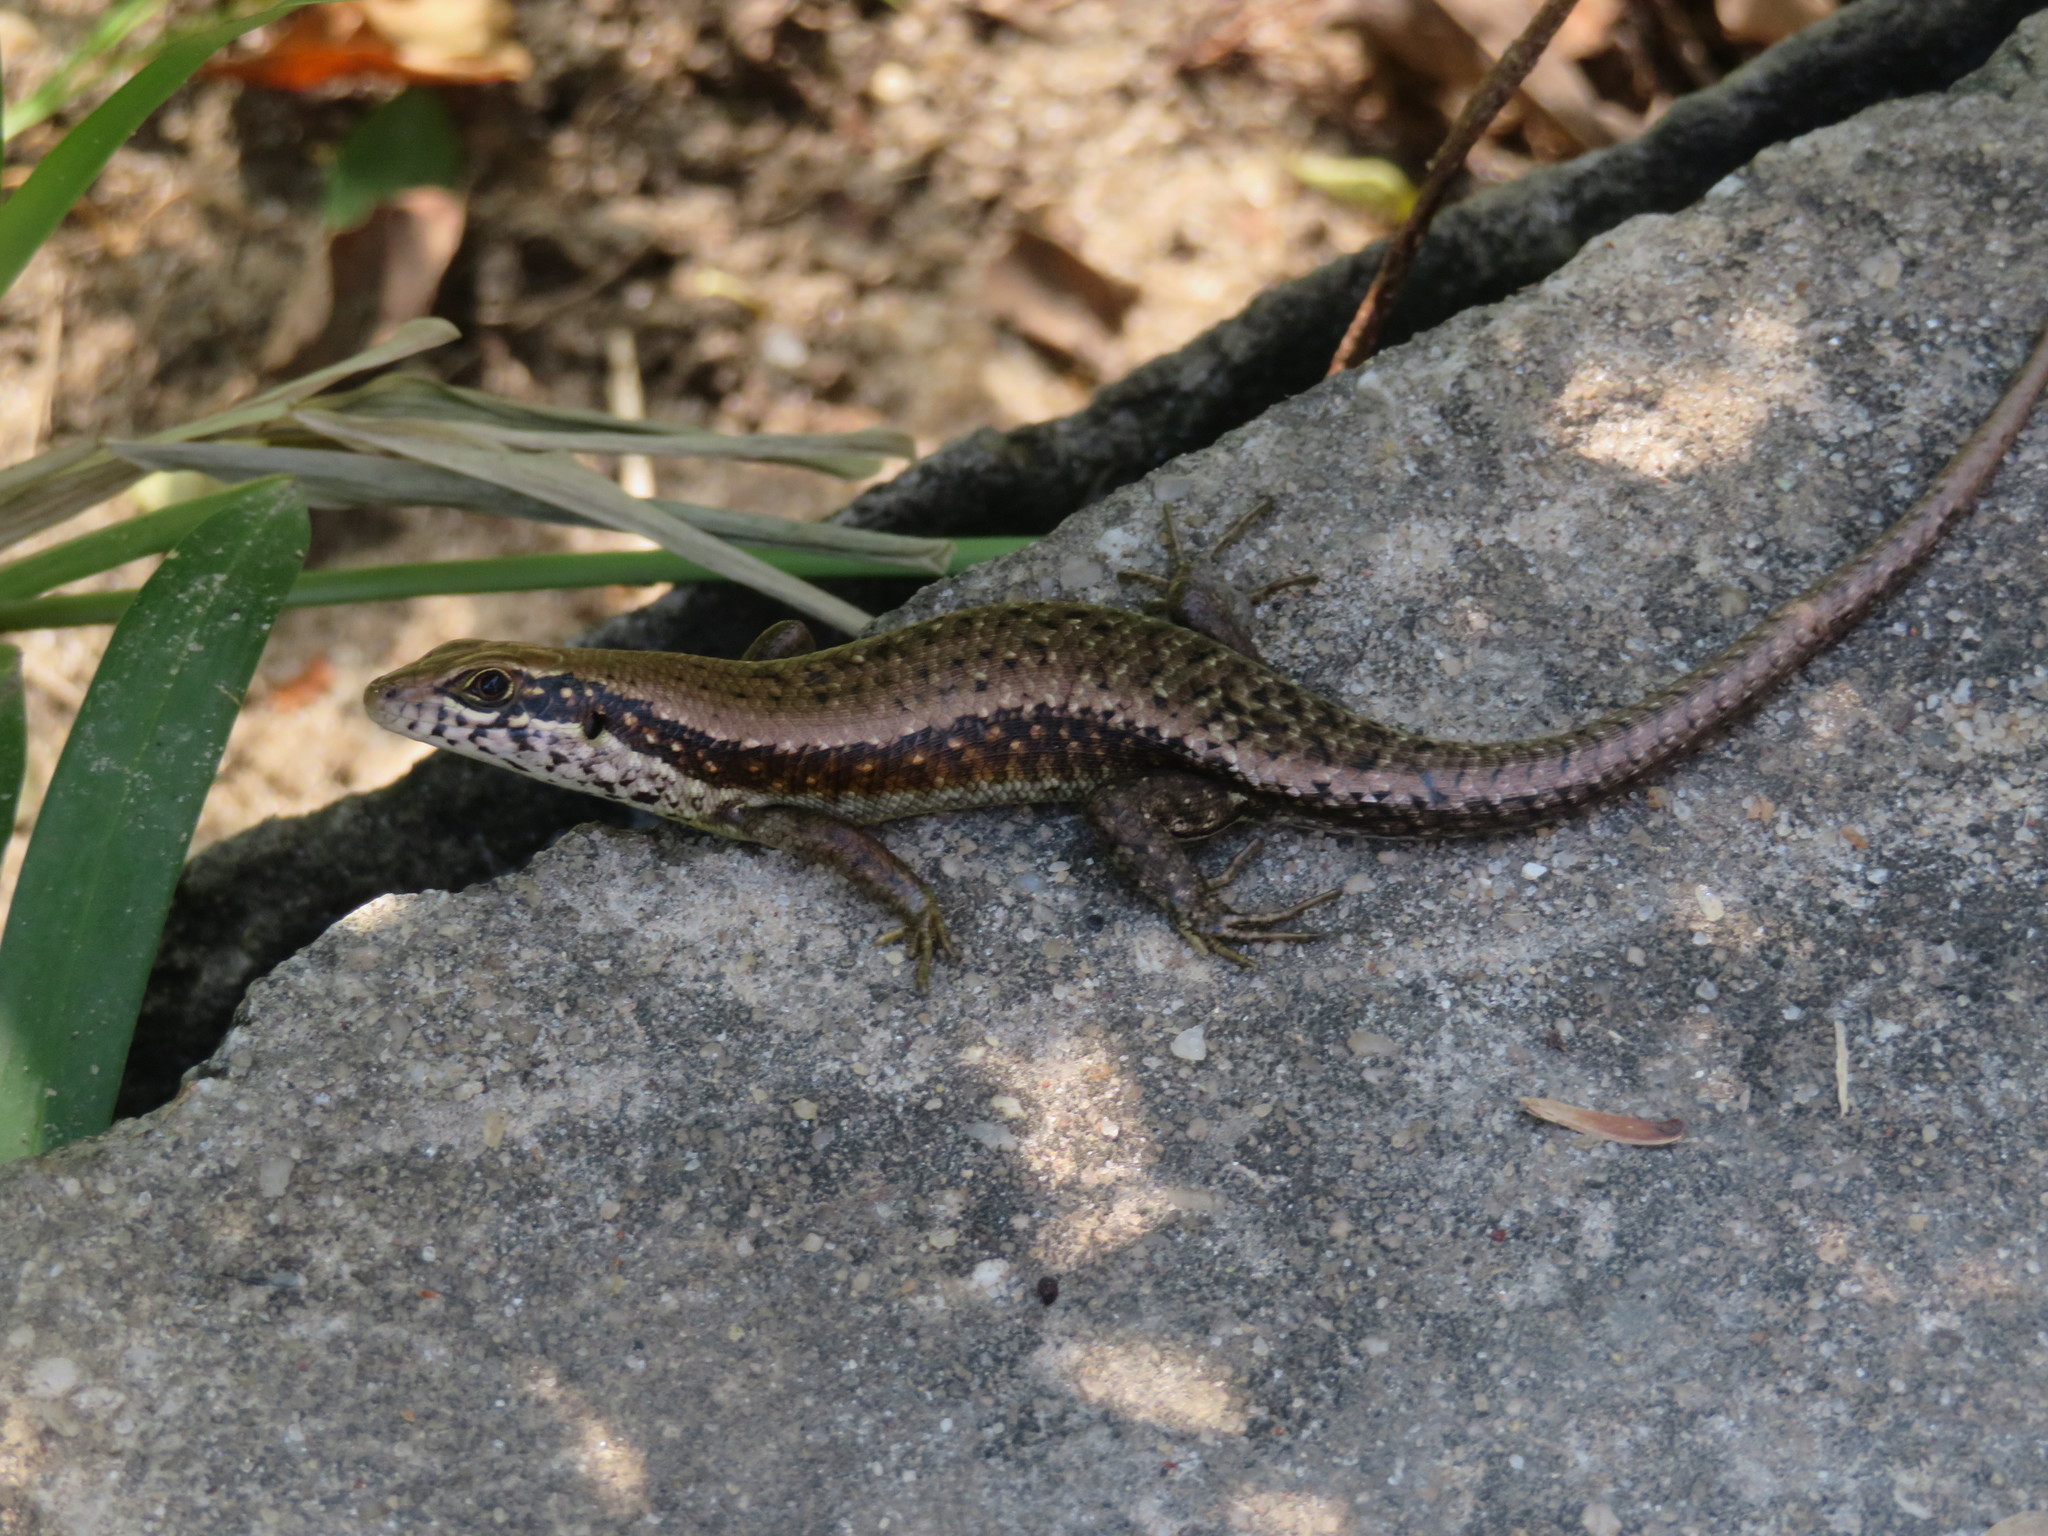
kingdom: Animalia
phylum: Chordata
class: Squamata
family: Scincidae
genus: Trachylepis
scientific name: Trachylepis maculilabris
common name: Speckle-lipped mabuya
